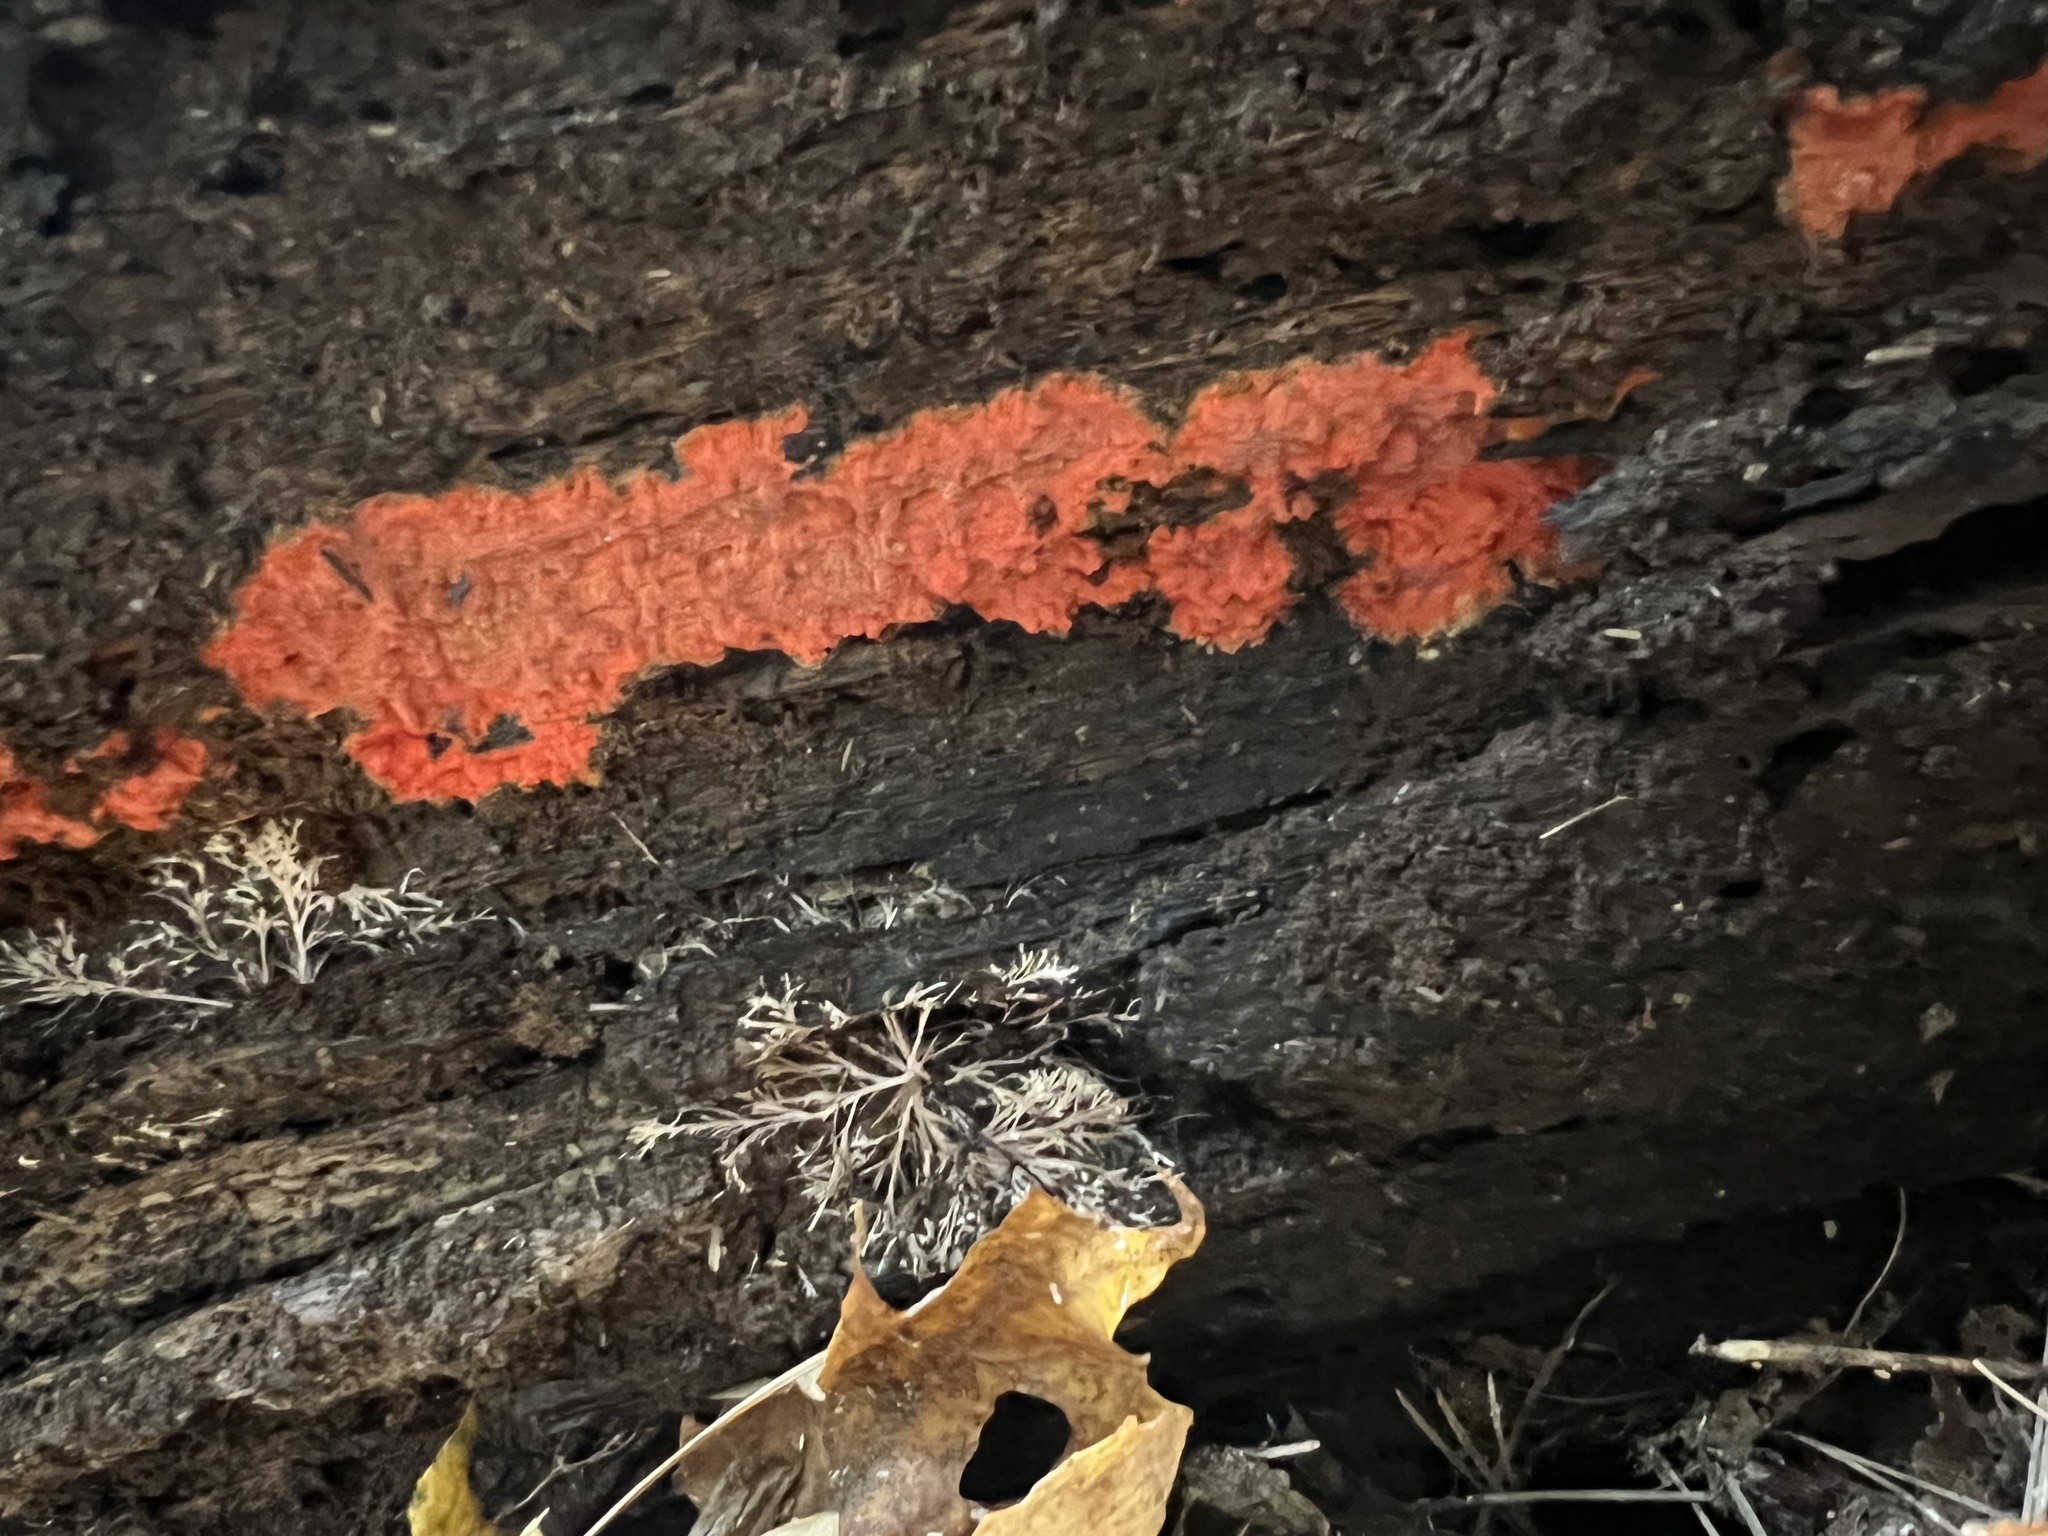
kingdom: Fungi
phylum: Basidiomycota
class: Agaricomycetes
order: Polyporales
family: Meruliaceae
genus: Phlebia
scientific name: Phlebia coccineofulva
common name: Scarlet waxcrust
